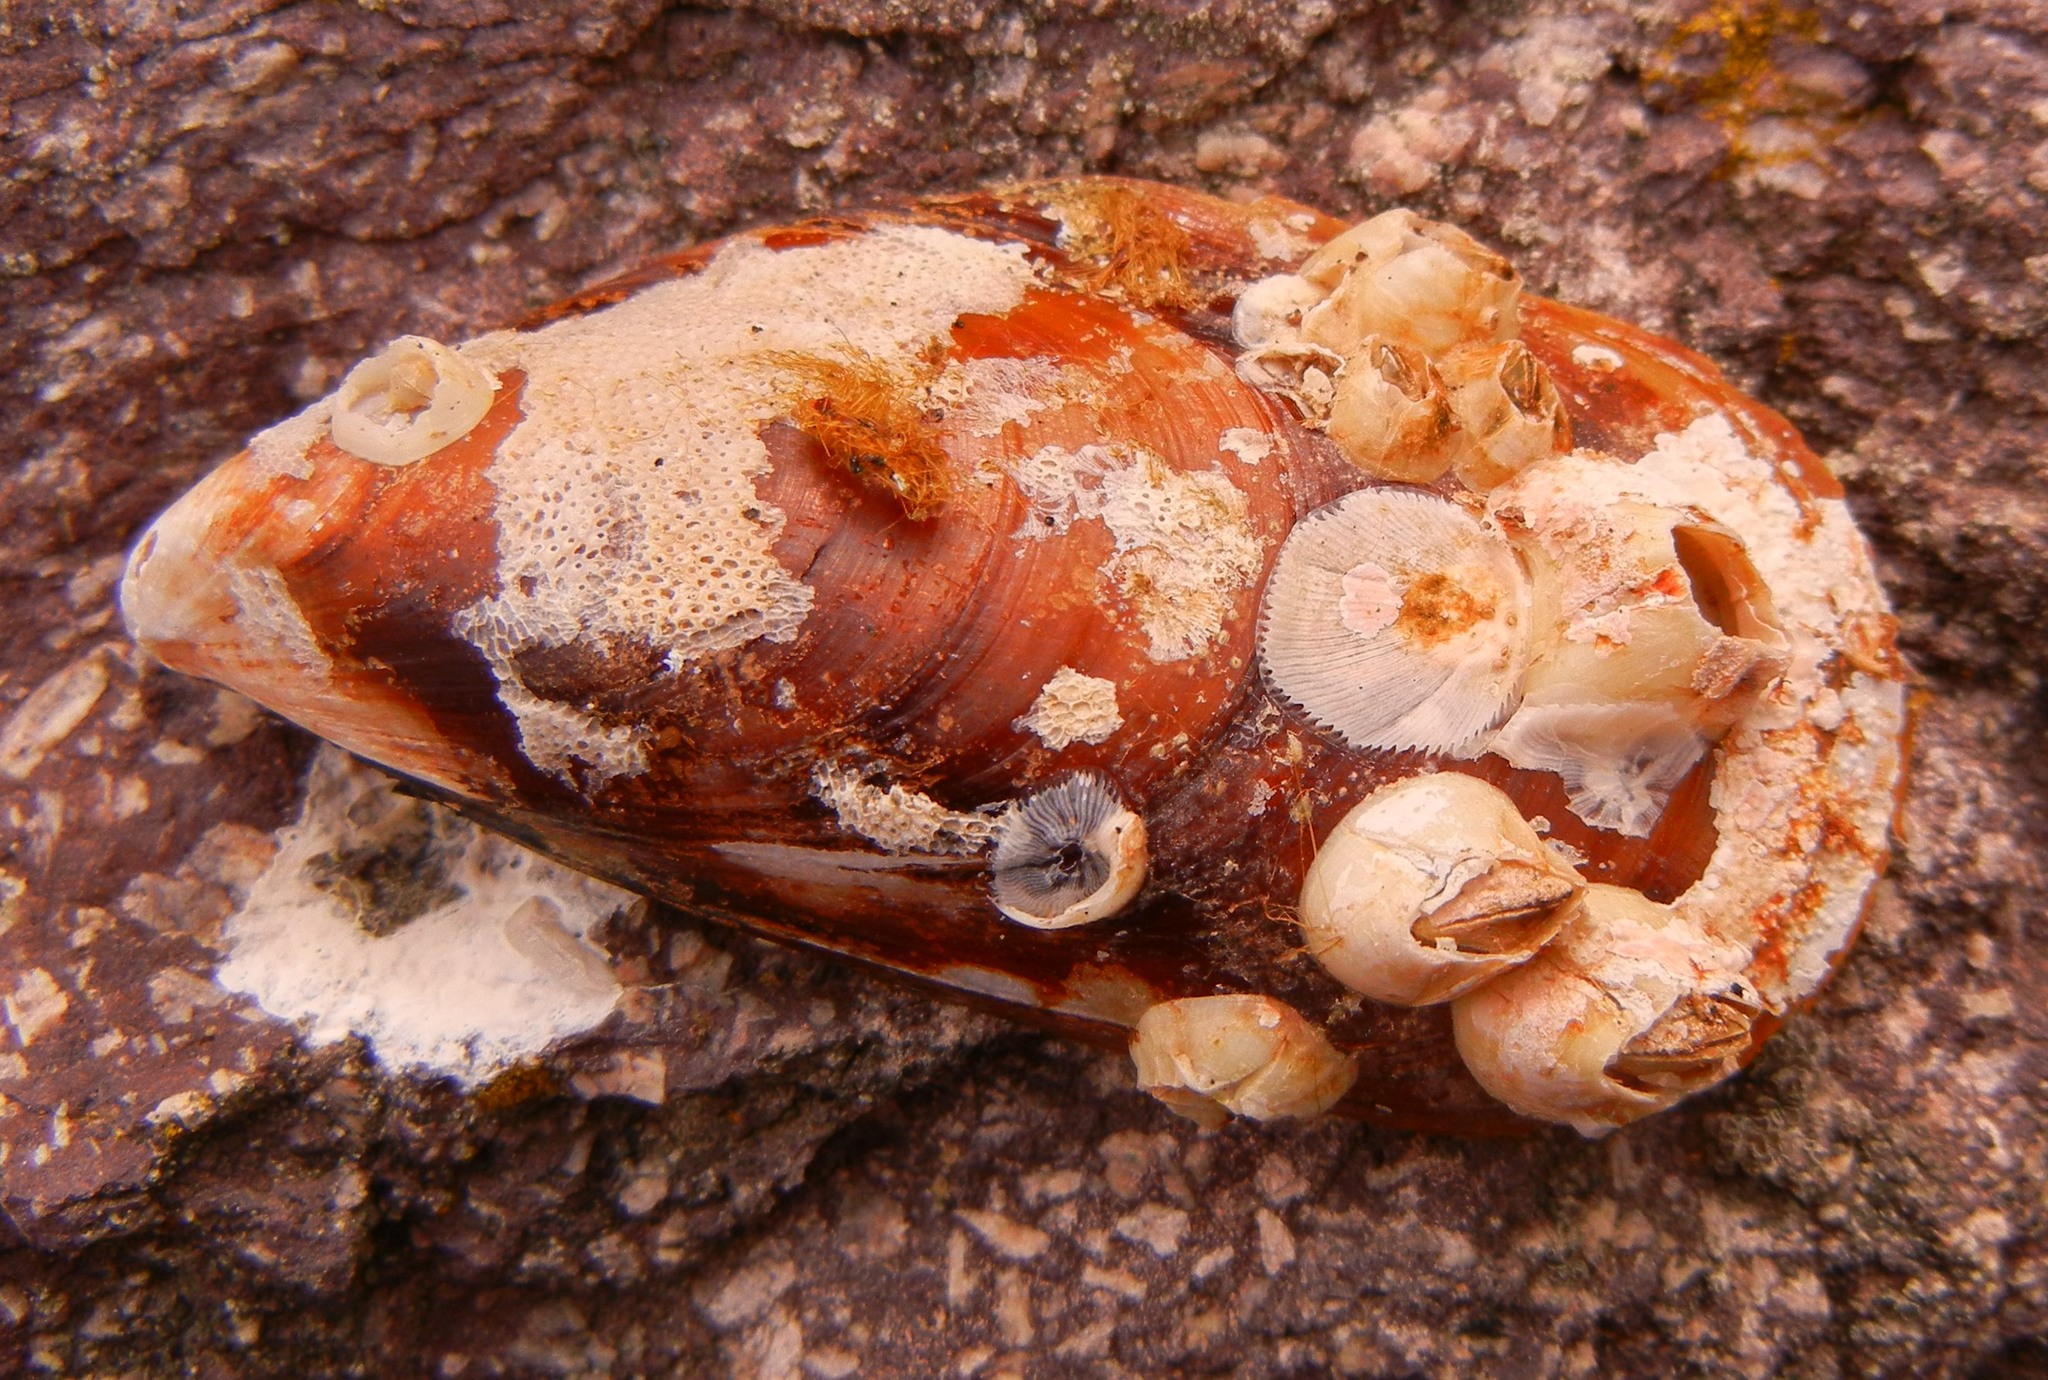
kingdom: Animalia
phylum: Mollusca
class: Bivalvia
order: Mytilida
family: Mytilidae
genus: Mytilus
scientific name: Mytilus galloprovincialis
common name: Mediterranean mussel
